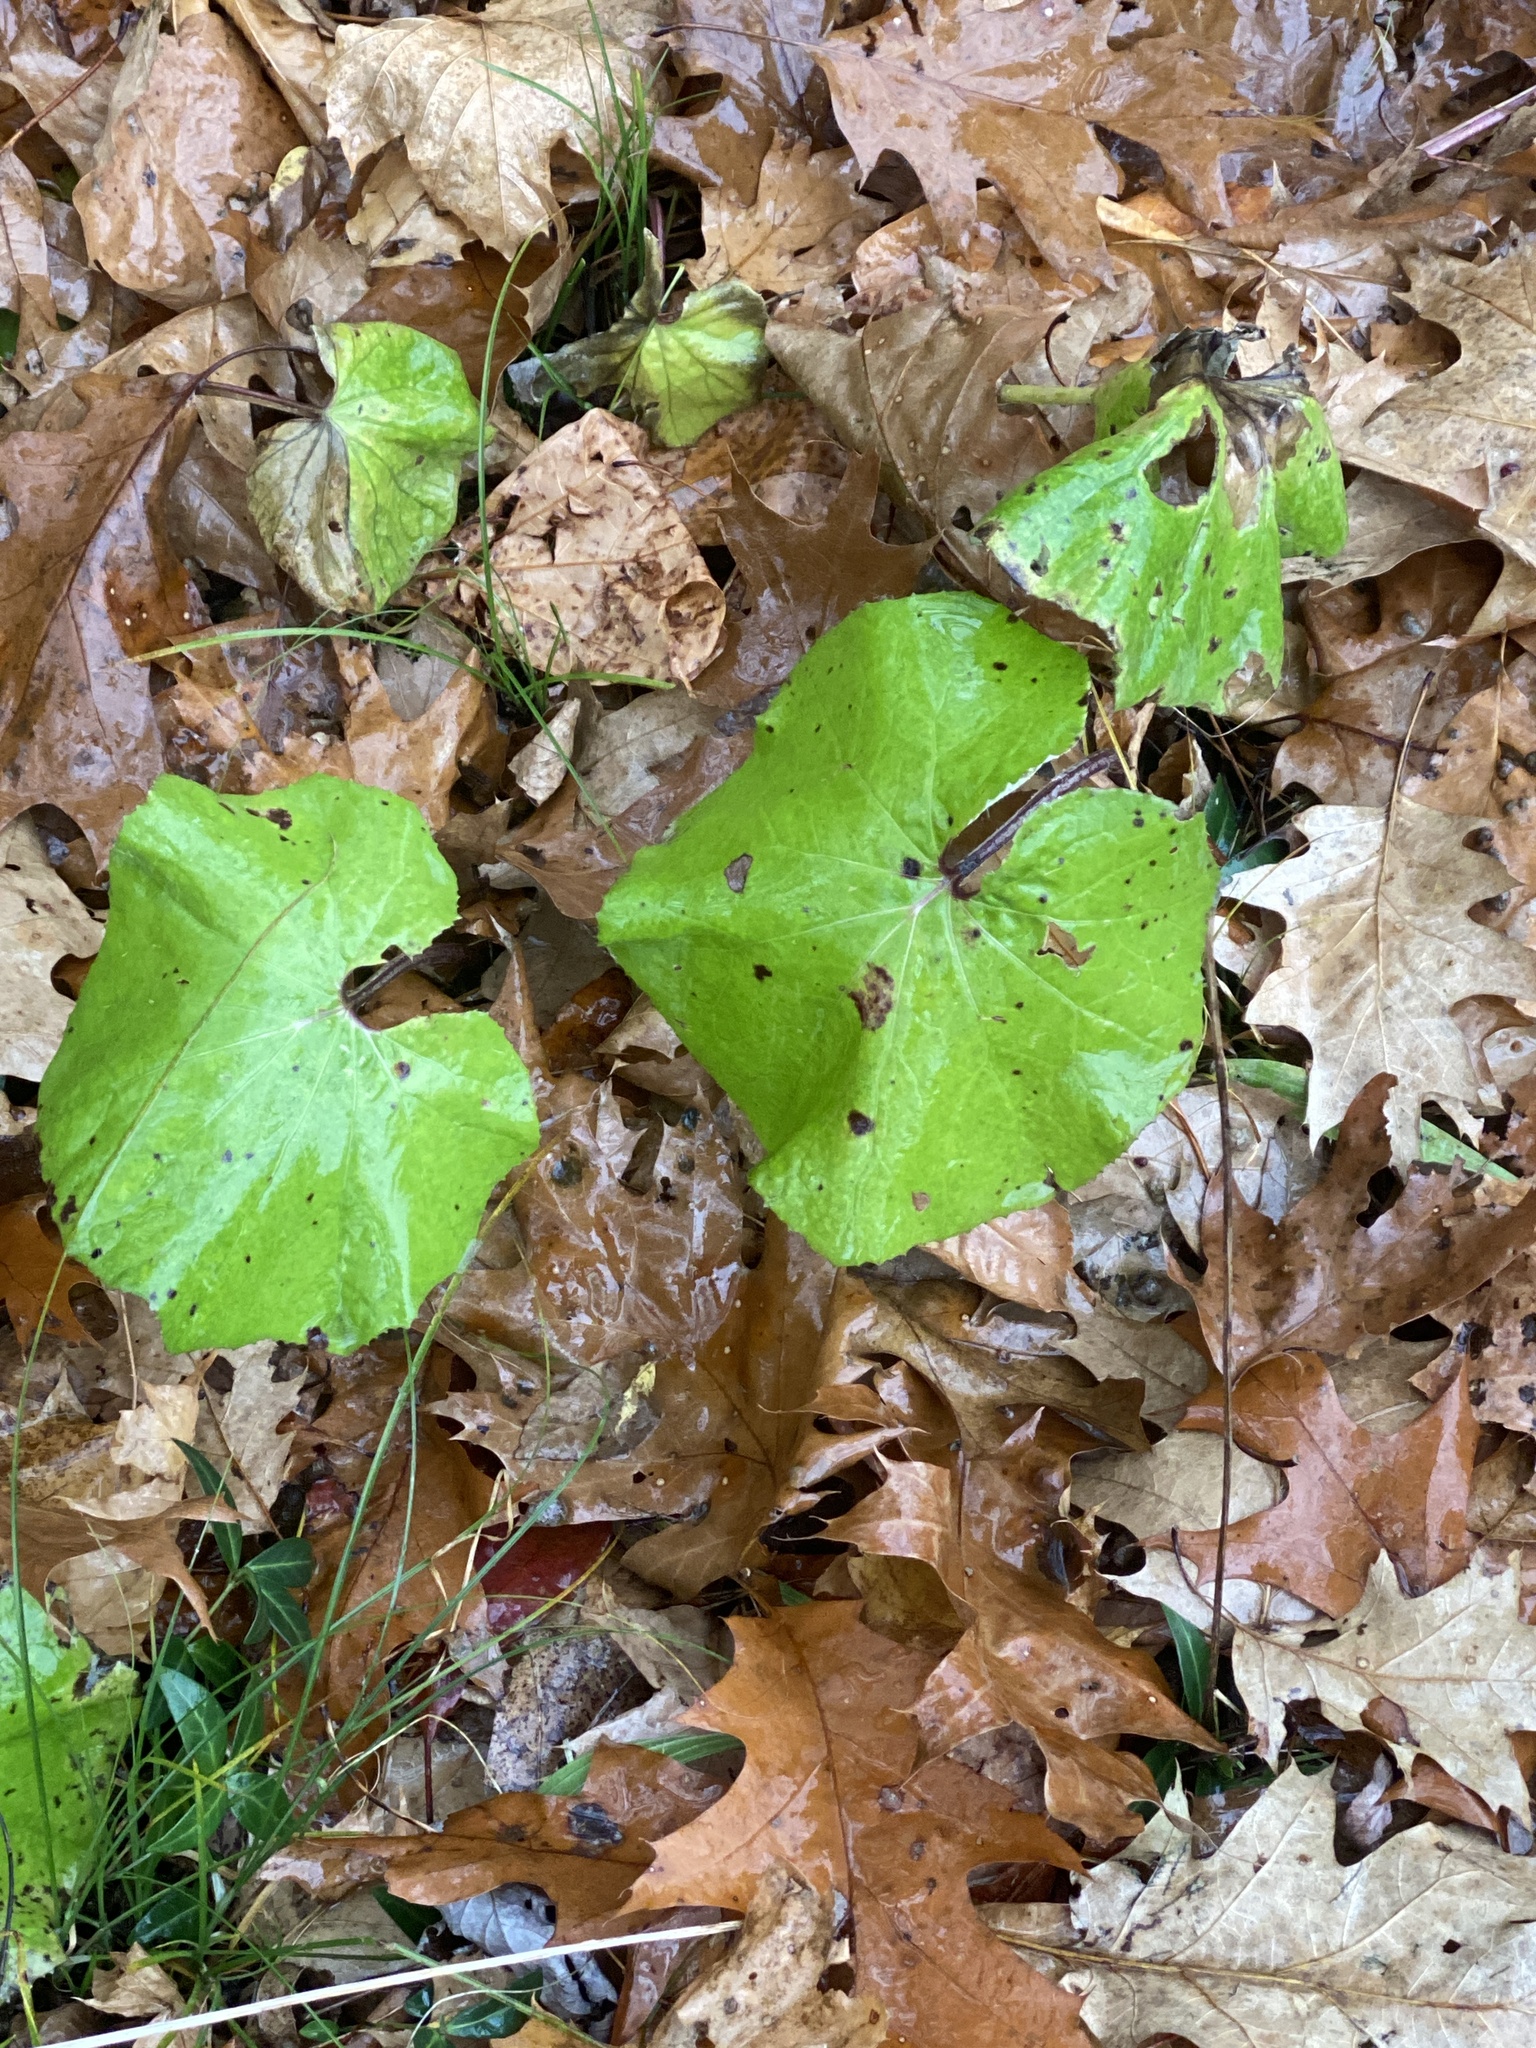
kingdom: Plantae
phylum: Tracheophyta
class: Magnoliopsida
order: Asterales
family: Asteraceae
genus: Tussilago
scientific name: Tussilago farfara
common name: Coltsfoot
